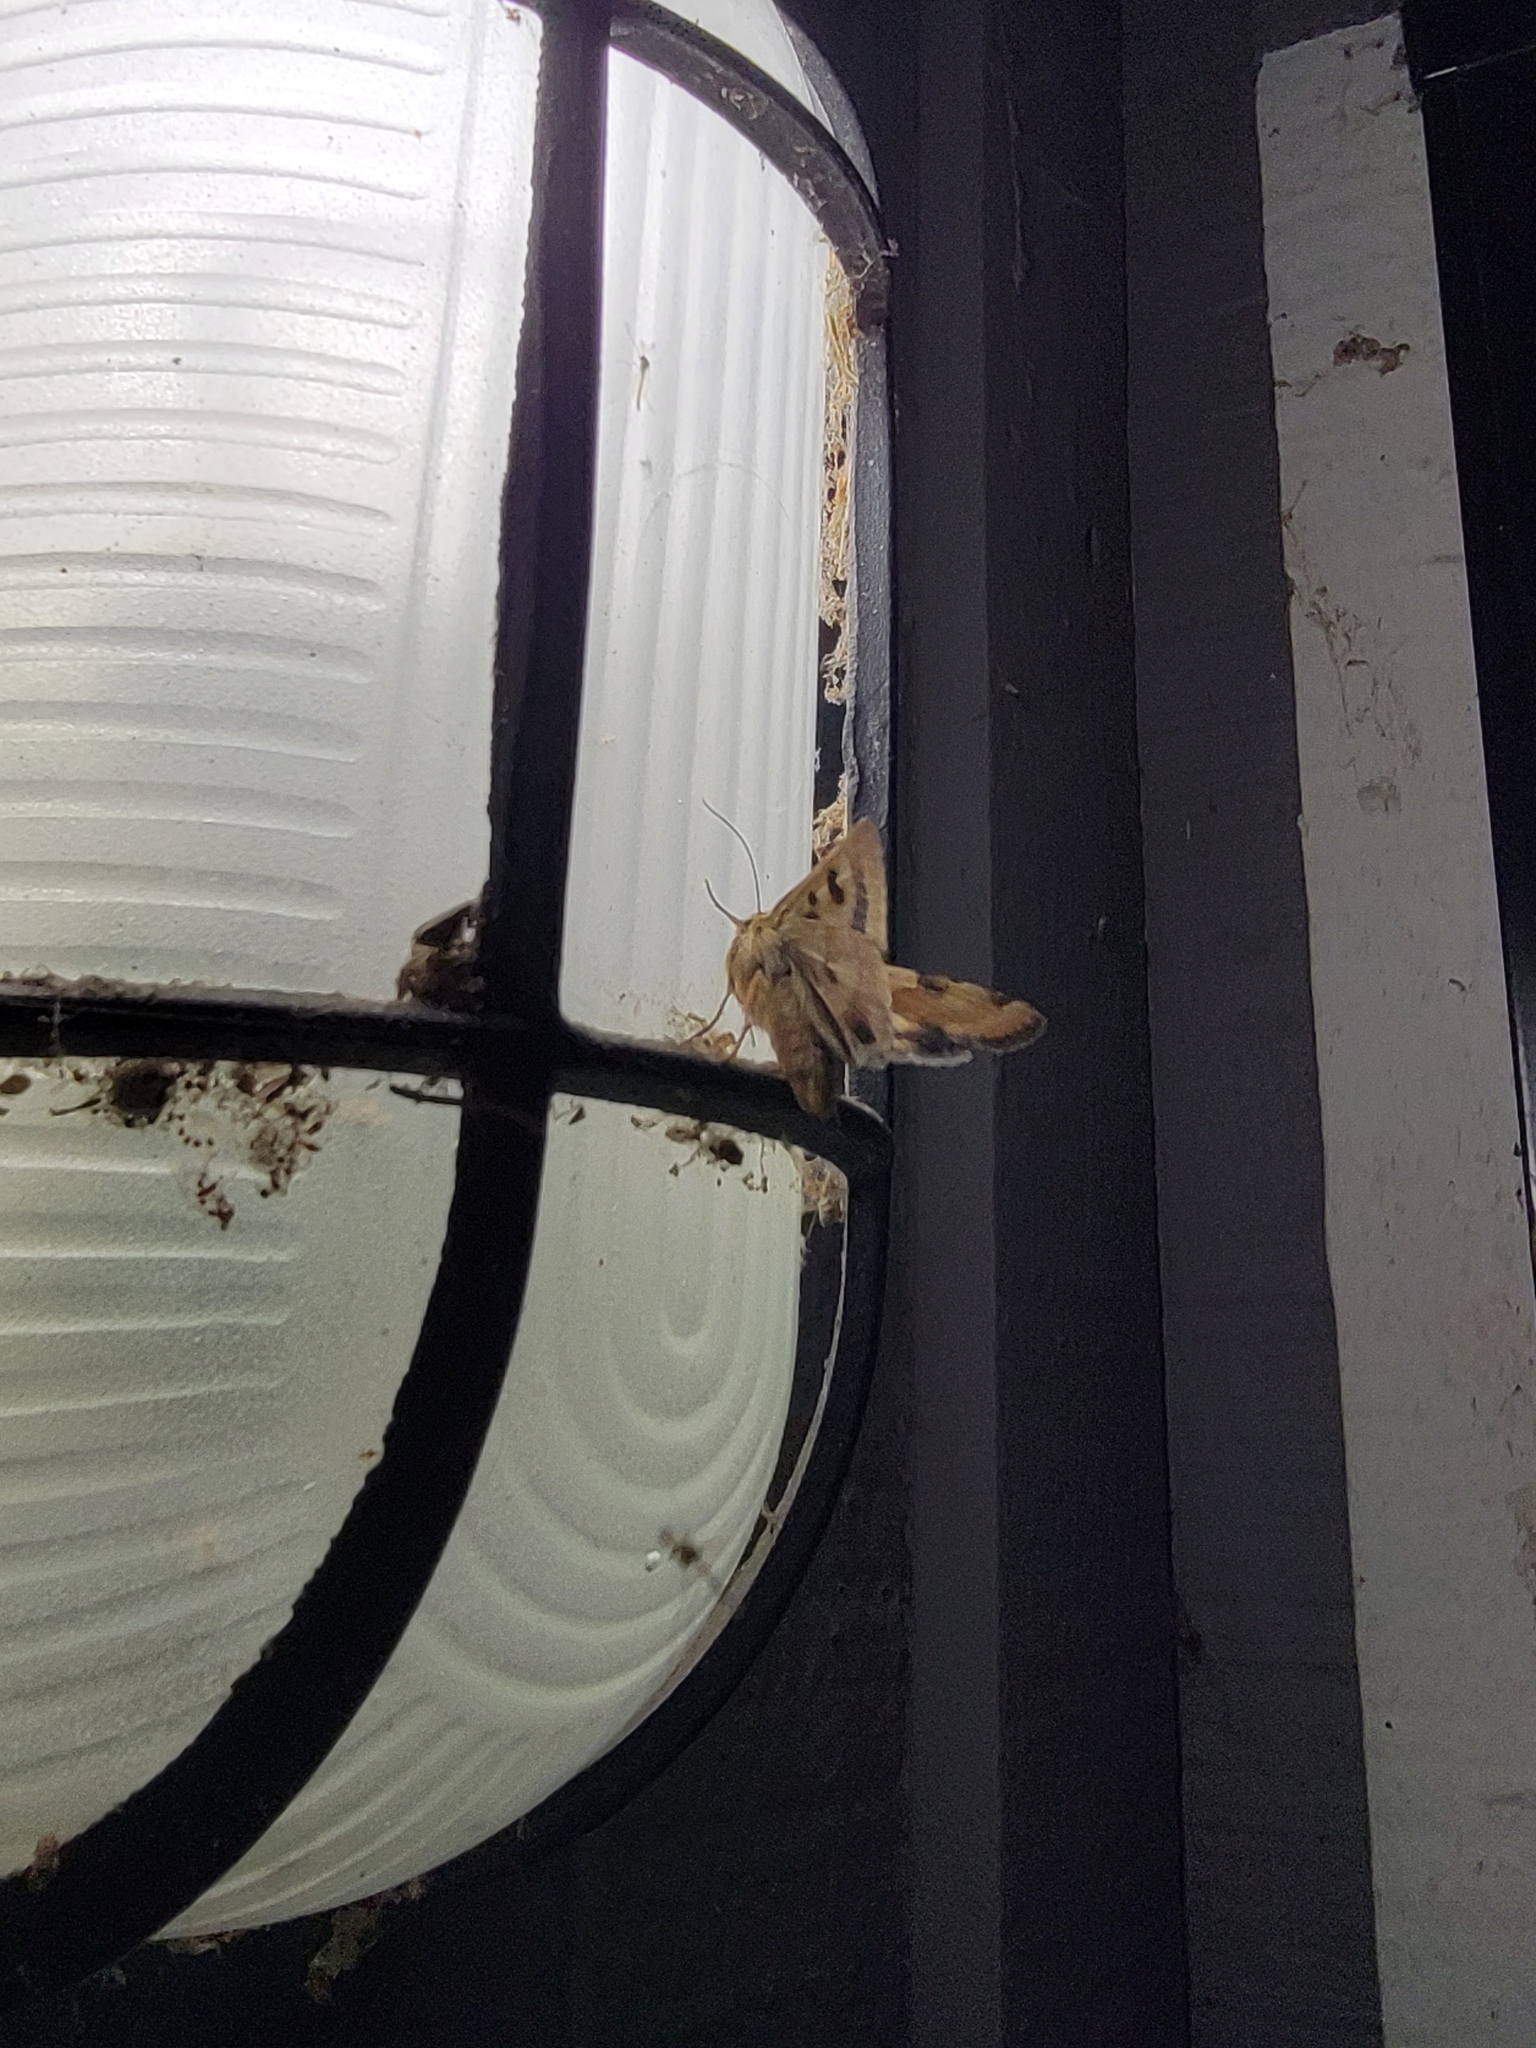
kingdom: Animalia
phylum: Arthropoda
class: Insecta
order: Lepidoptera
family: Noctuidae
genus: Heliothis
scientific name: Heliothis phloxiphaga
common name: Darker spotted straw moth
